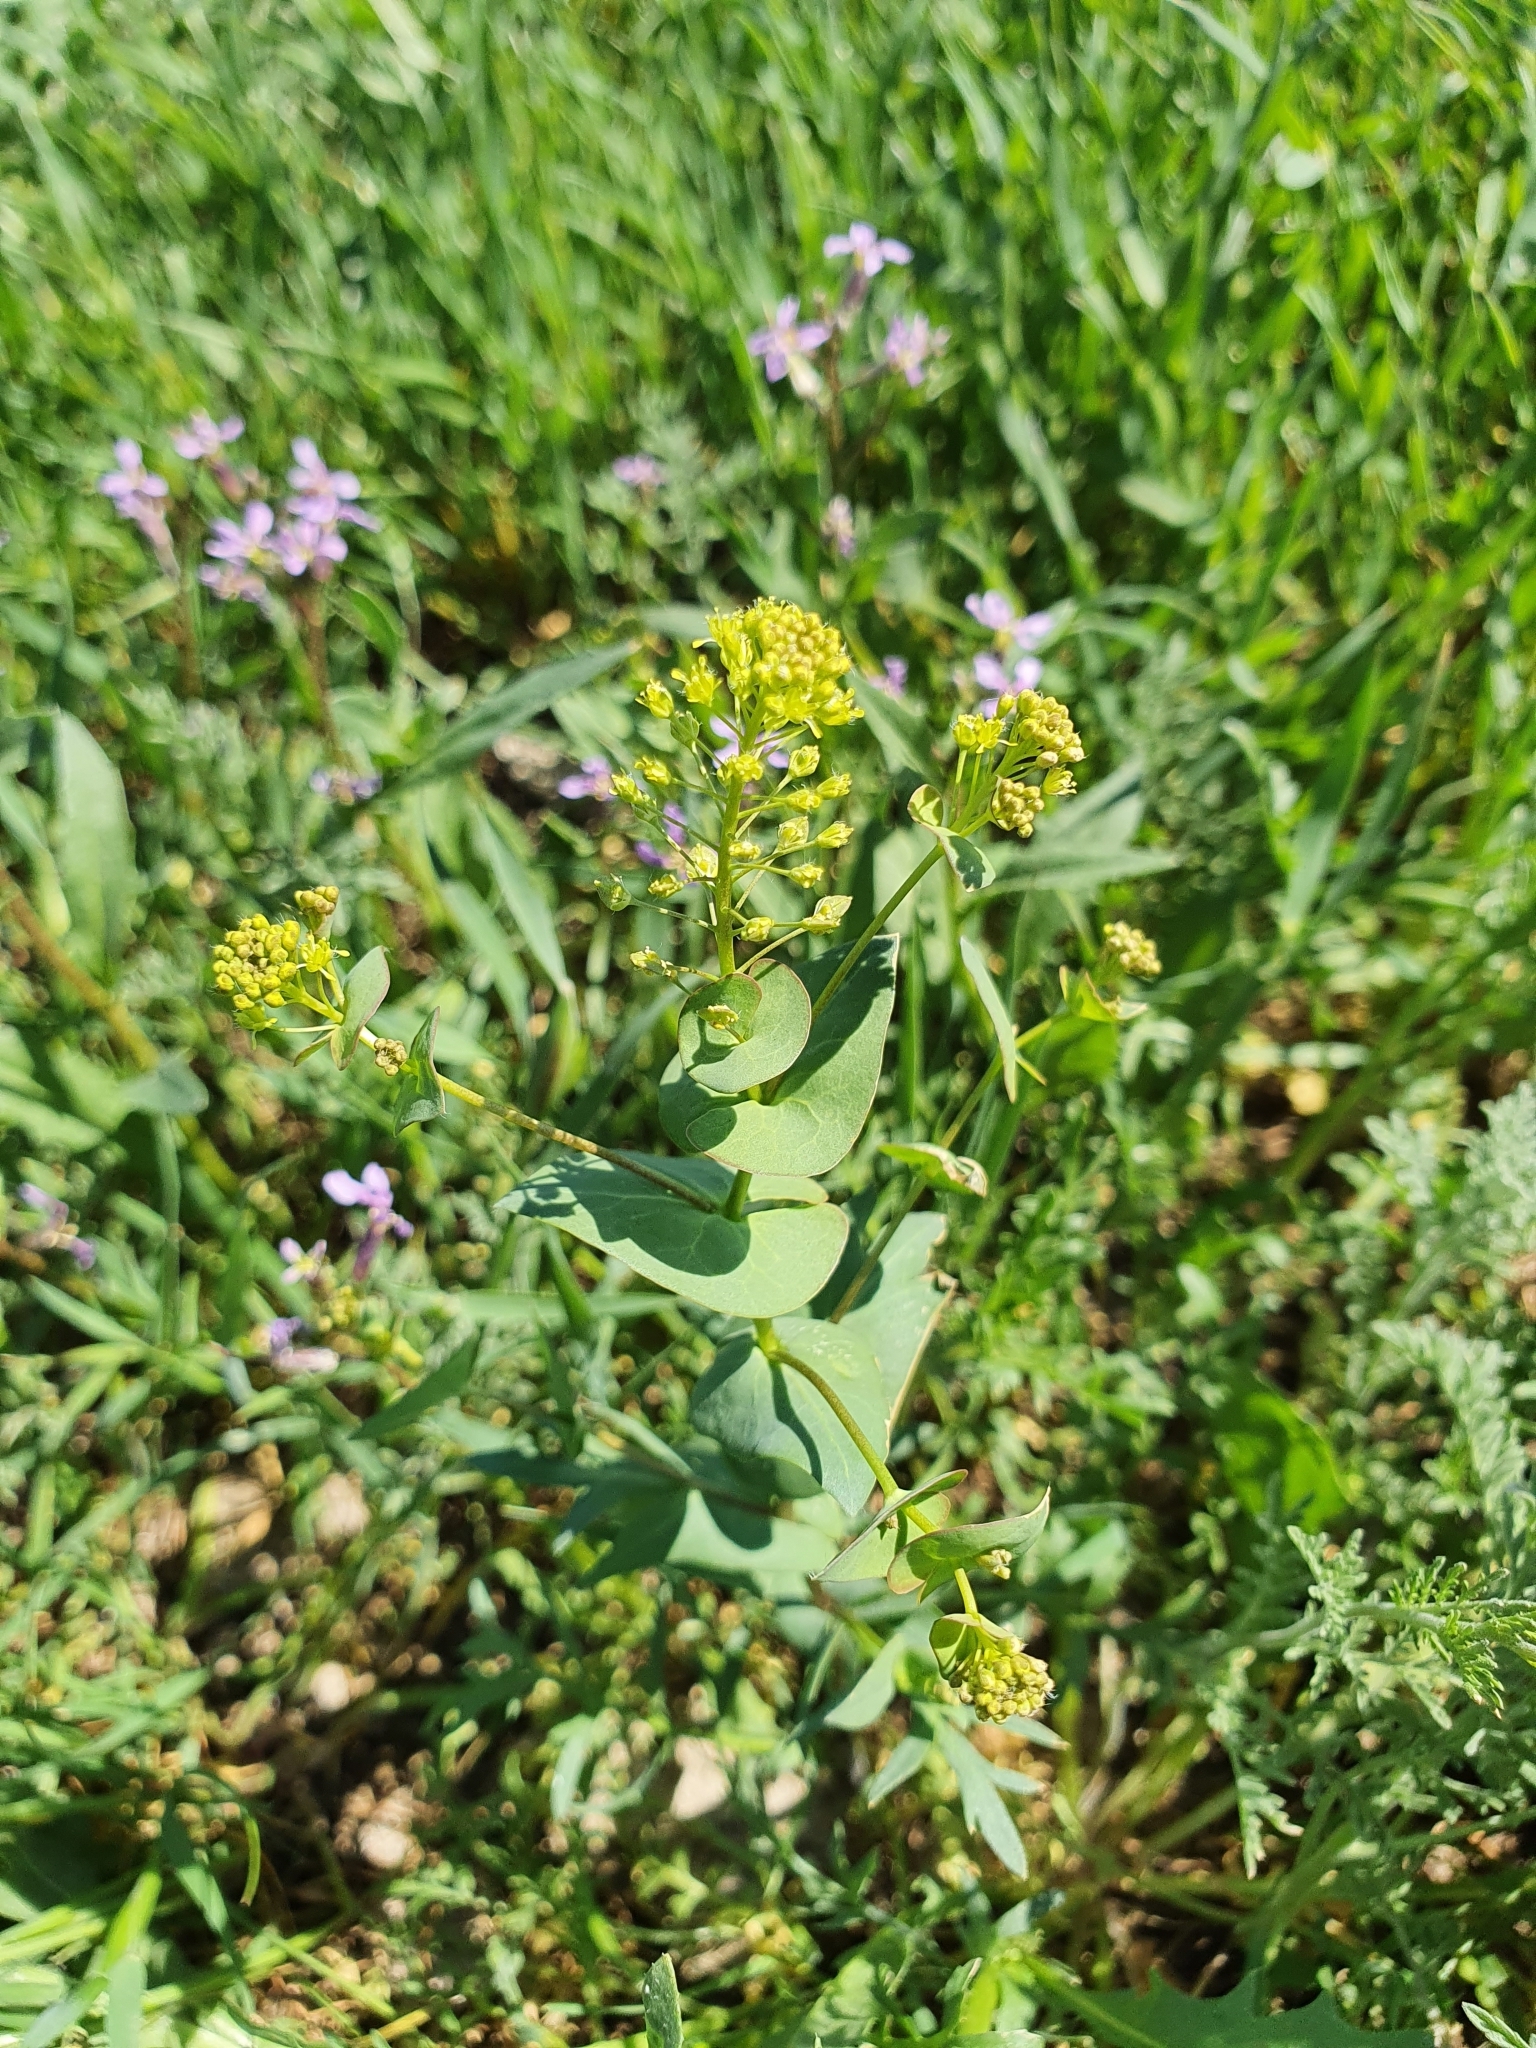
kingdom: Plantae
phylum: Tracheophyta
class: Magnoliopsida
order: Brassicales
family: Brassicaceae
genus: Lepidium
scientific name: Lepidium perfoliatum
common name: Perfoliate pepperwort
